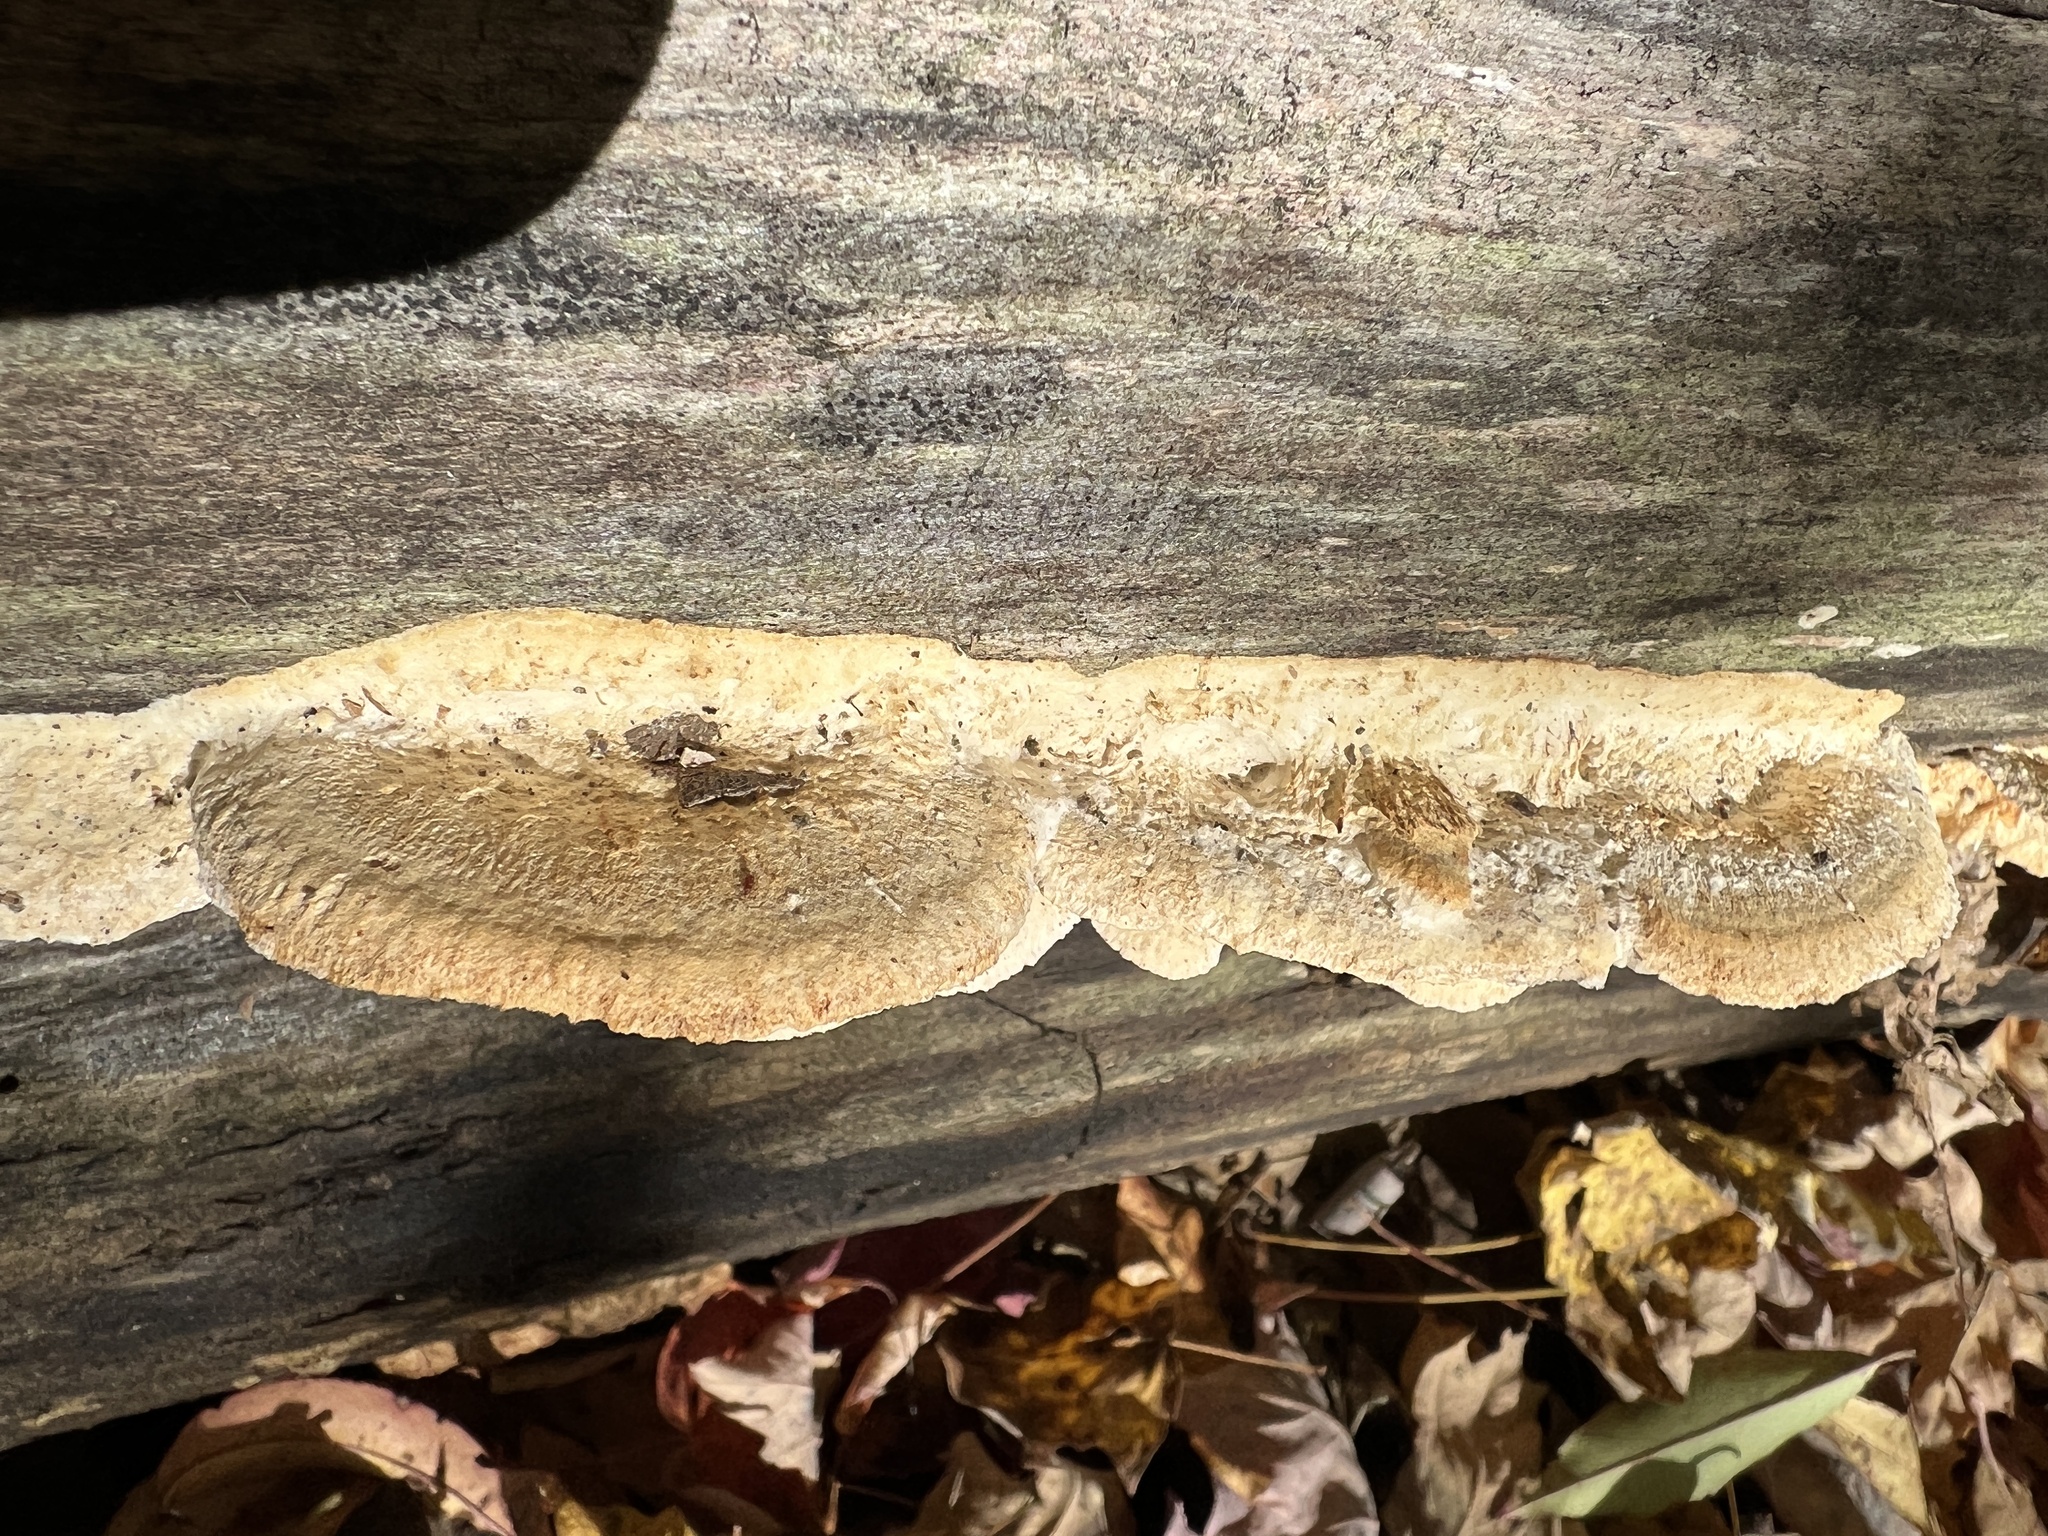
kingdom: Fungi
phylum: Basidiomycota
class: Agaricomycetes
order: Polyporales
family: Irpicaceae
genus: Trametopsis
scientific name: Trametopsis cervina
